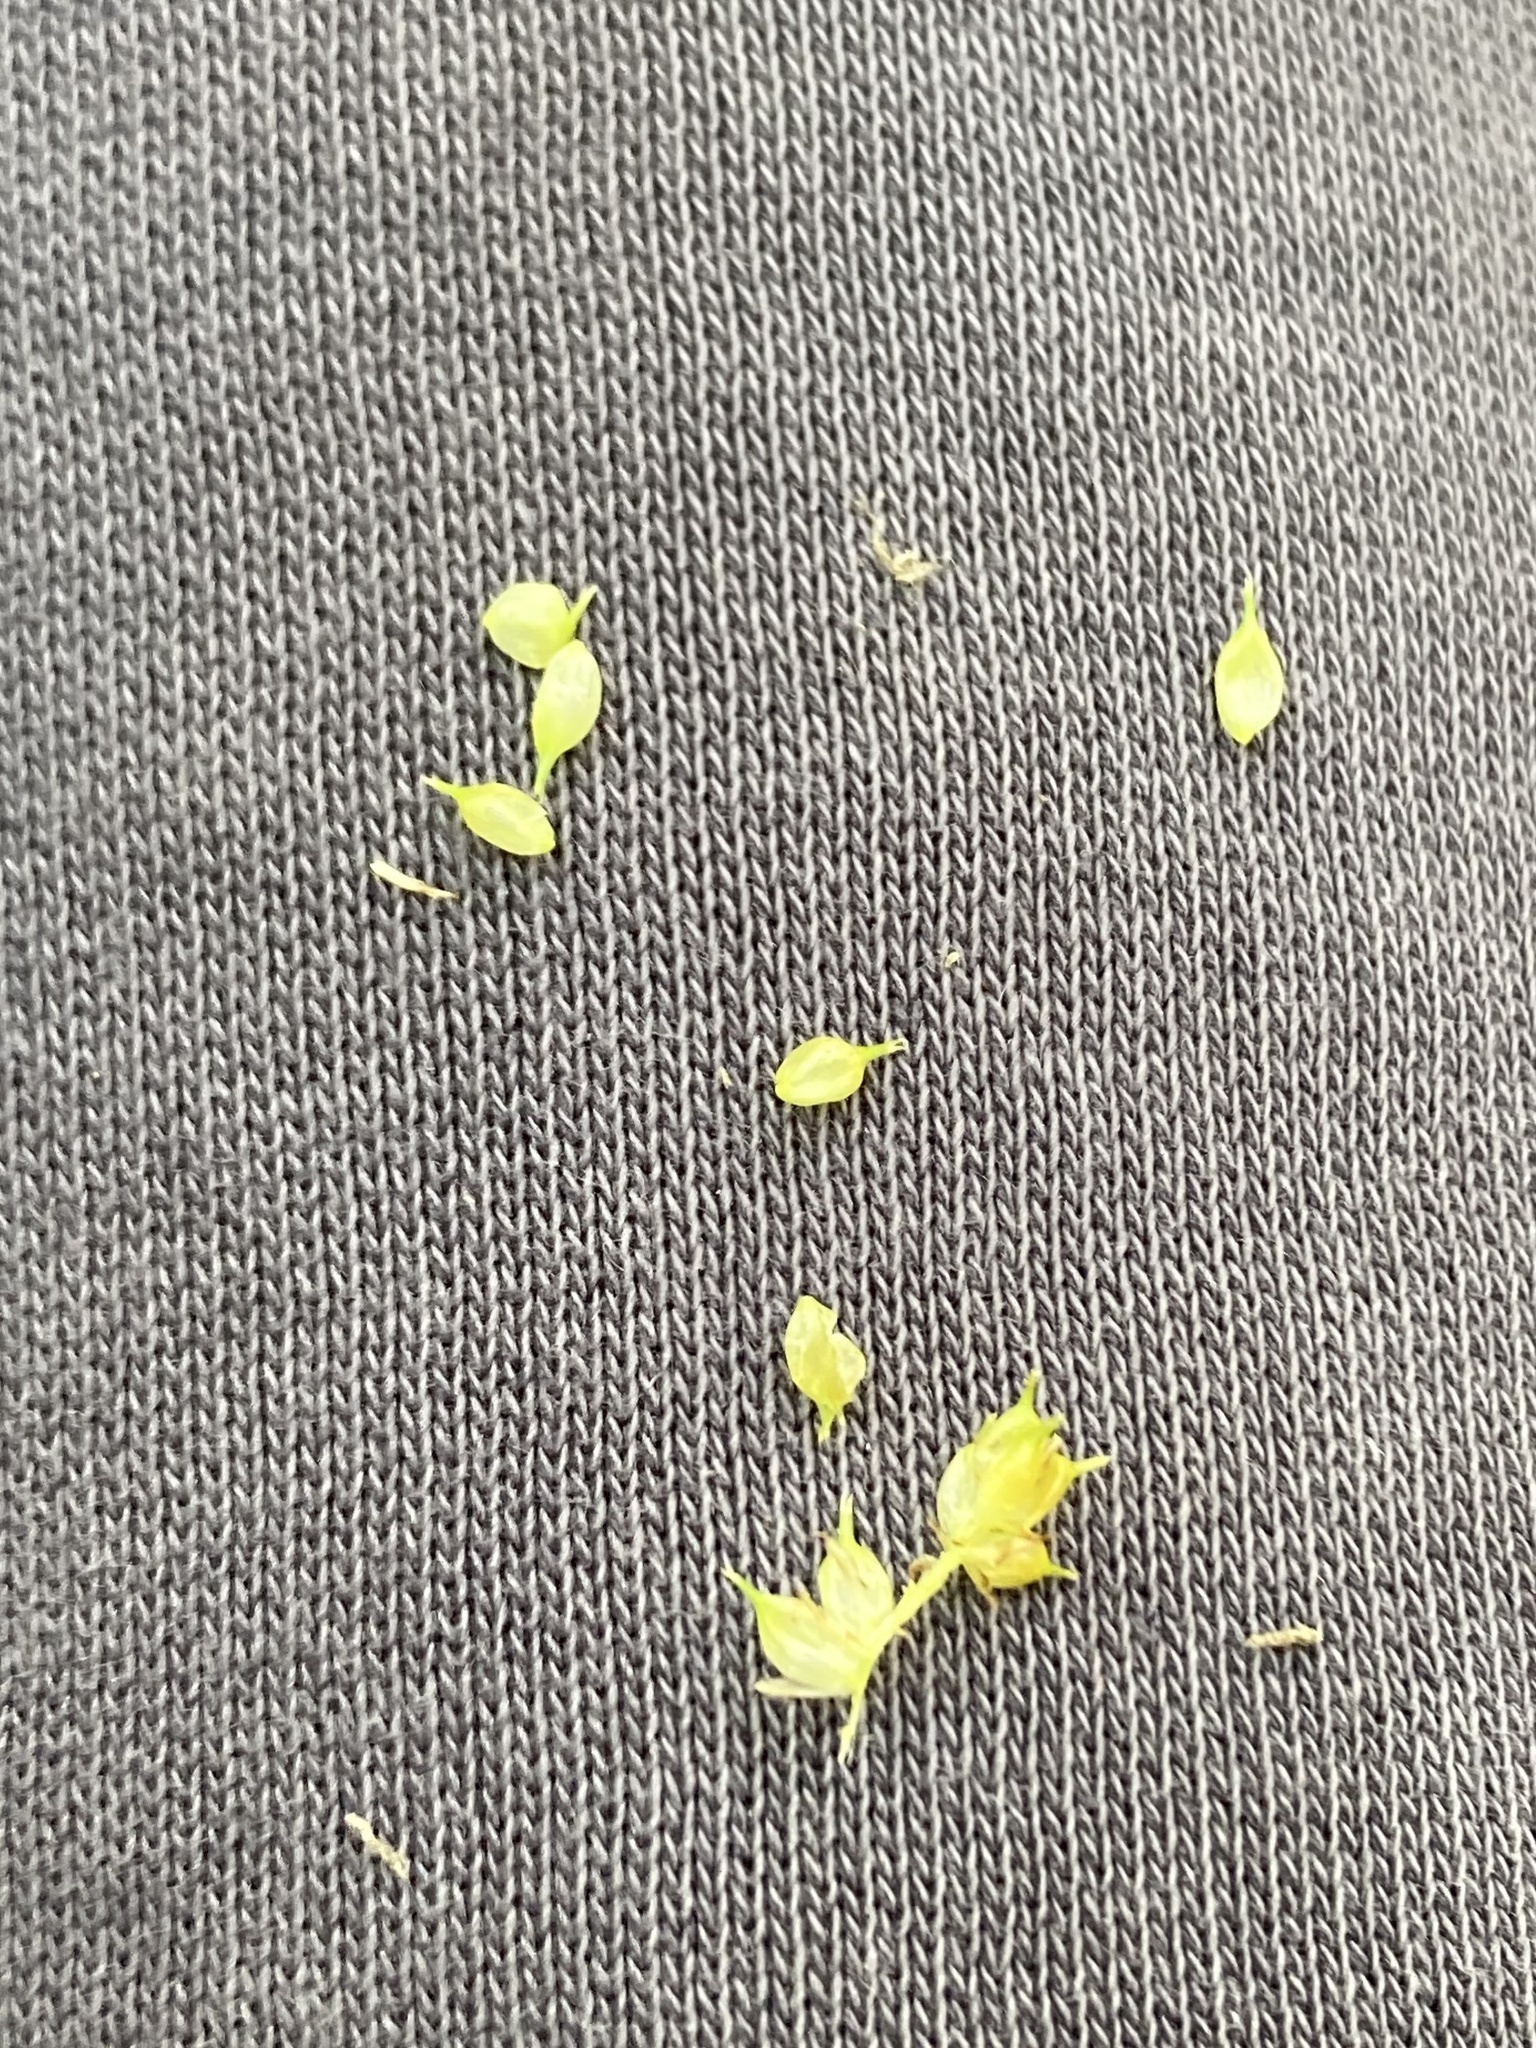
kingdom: Plantae
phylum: Tracheophyta
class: Liliopsida
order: Poales
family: Cyperaceae
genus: Carex
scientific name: Carex utriculata
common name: Beaked sedge
